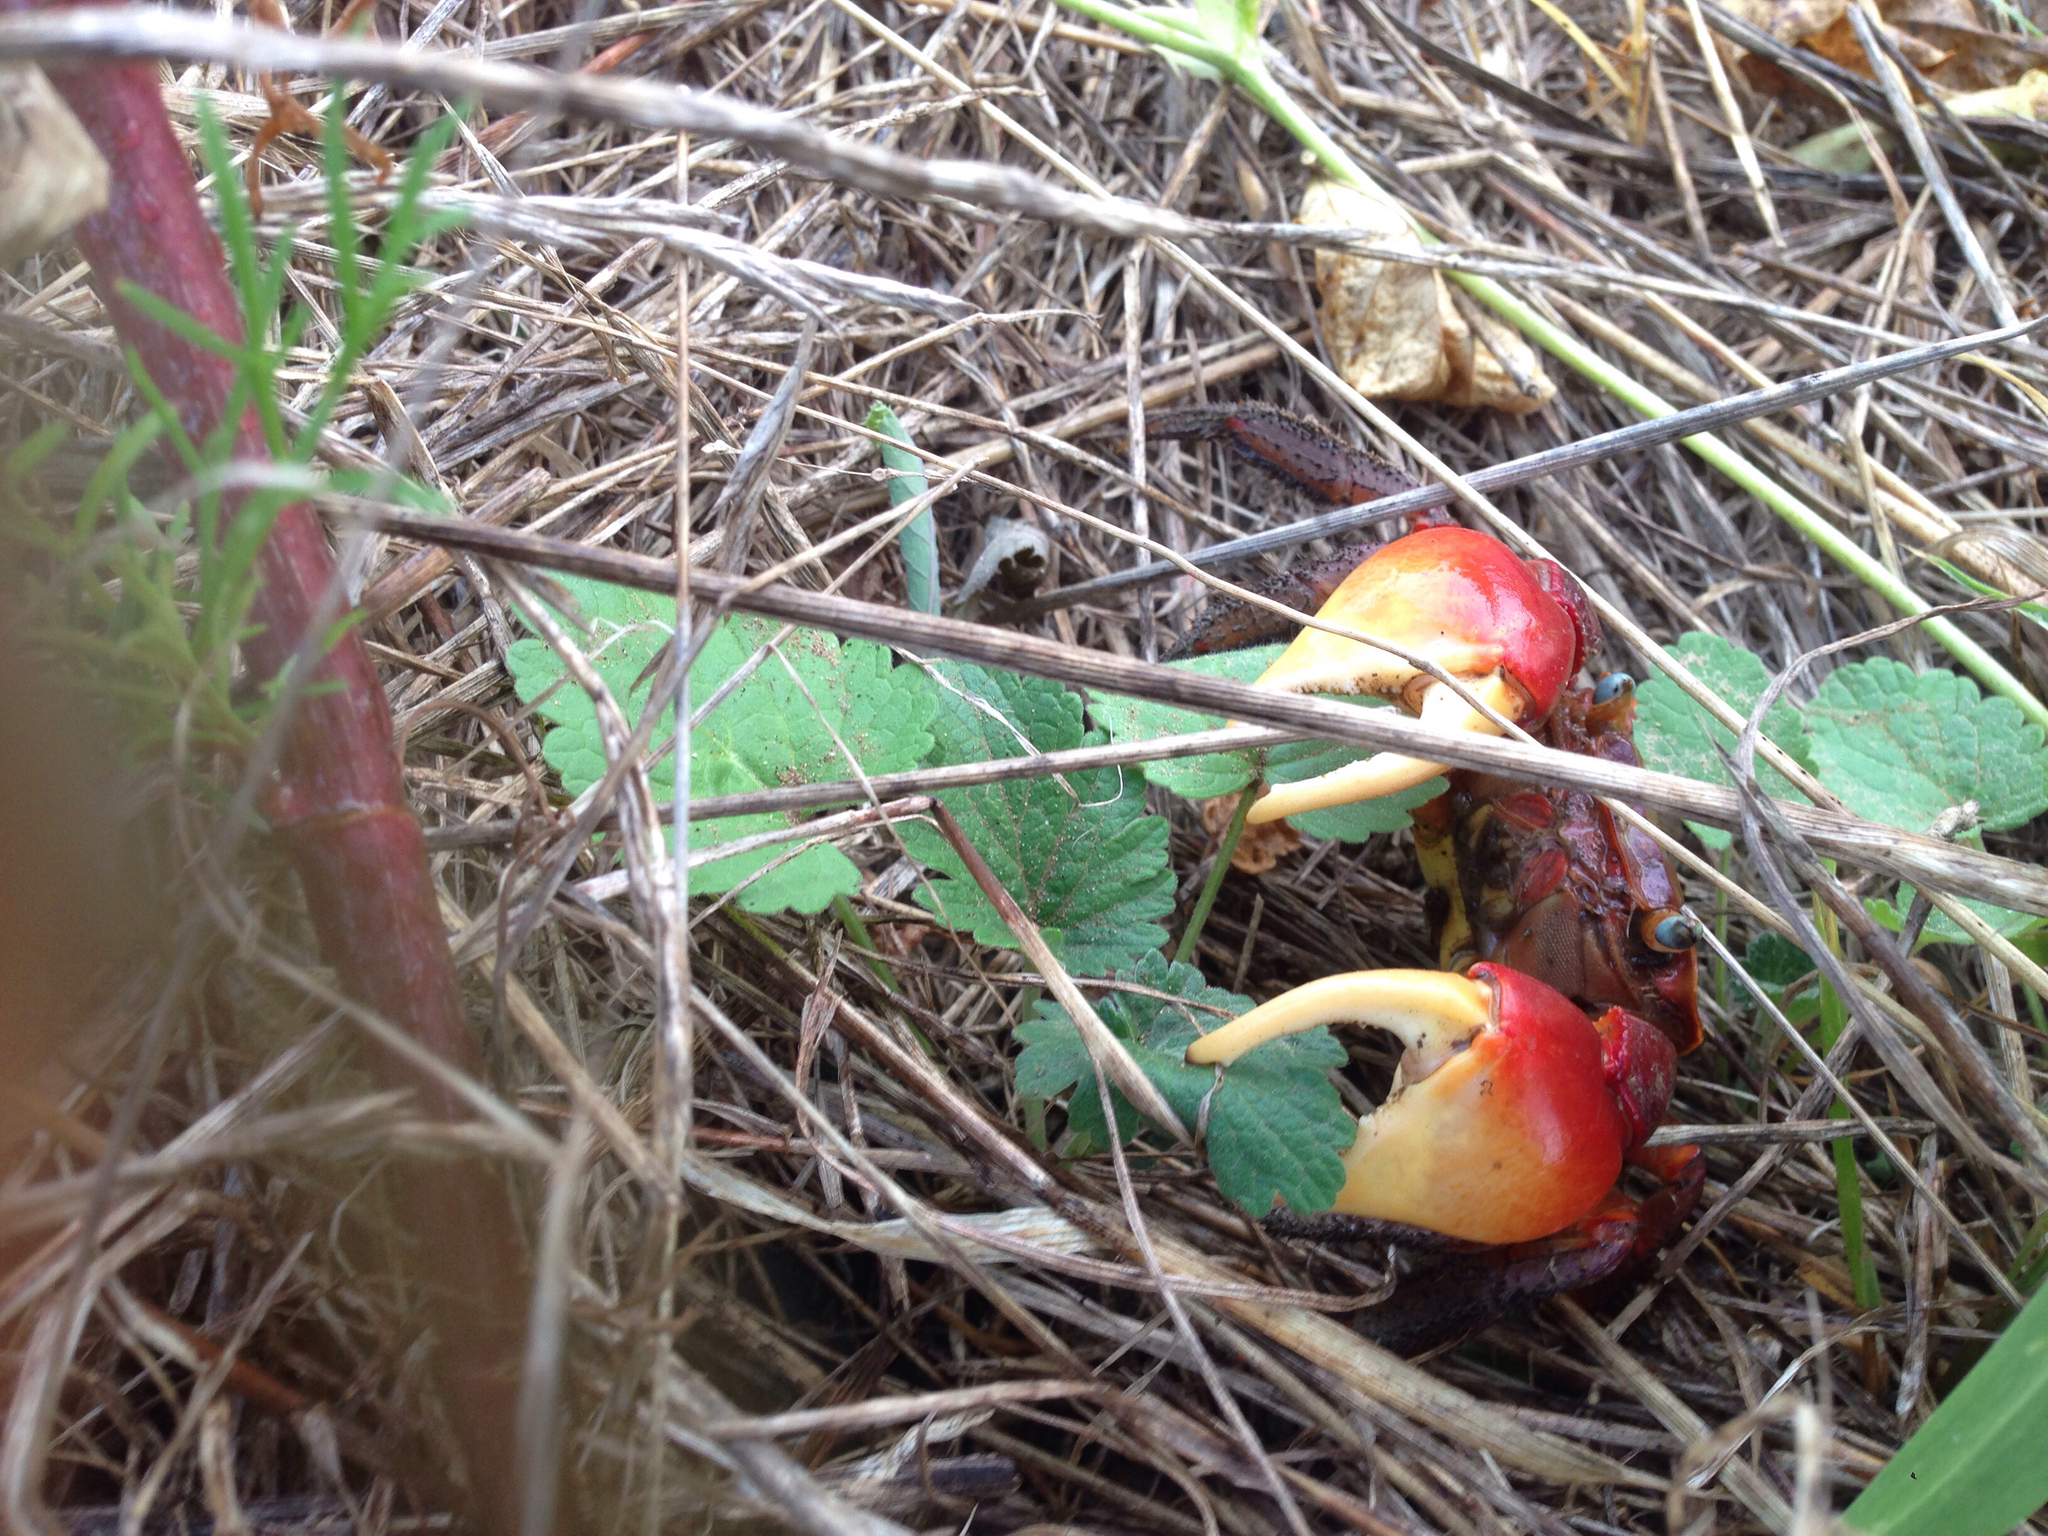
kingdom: Animalia
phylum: Arthropoda
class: Malacostraca
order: Decapoda
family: Sesarmidae
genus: Chiromantes
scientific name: Chiromantes haematocheir
